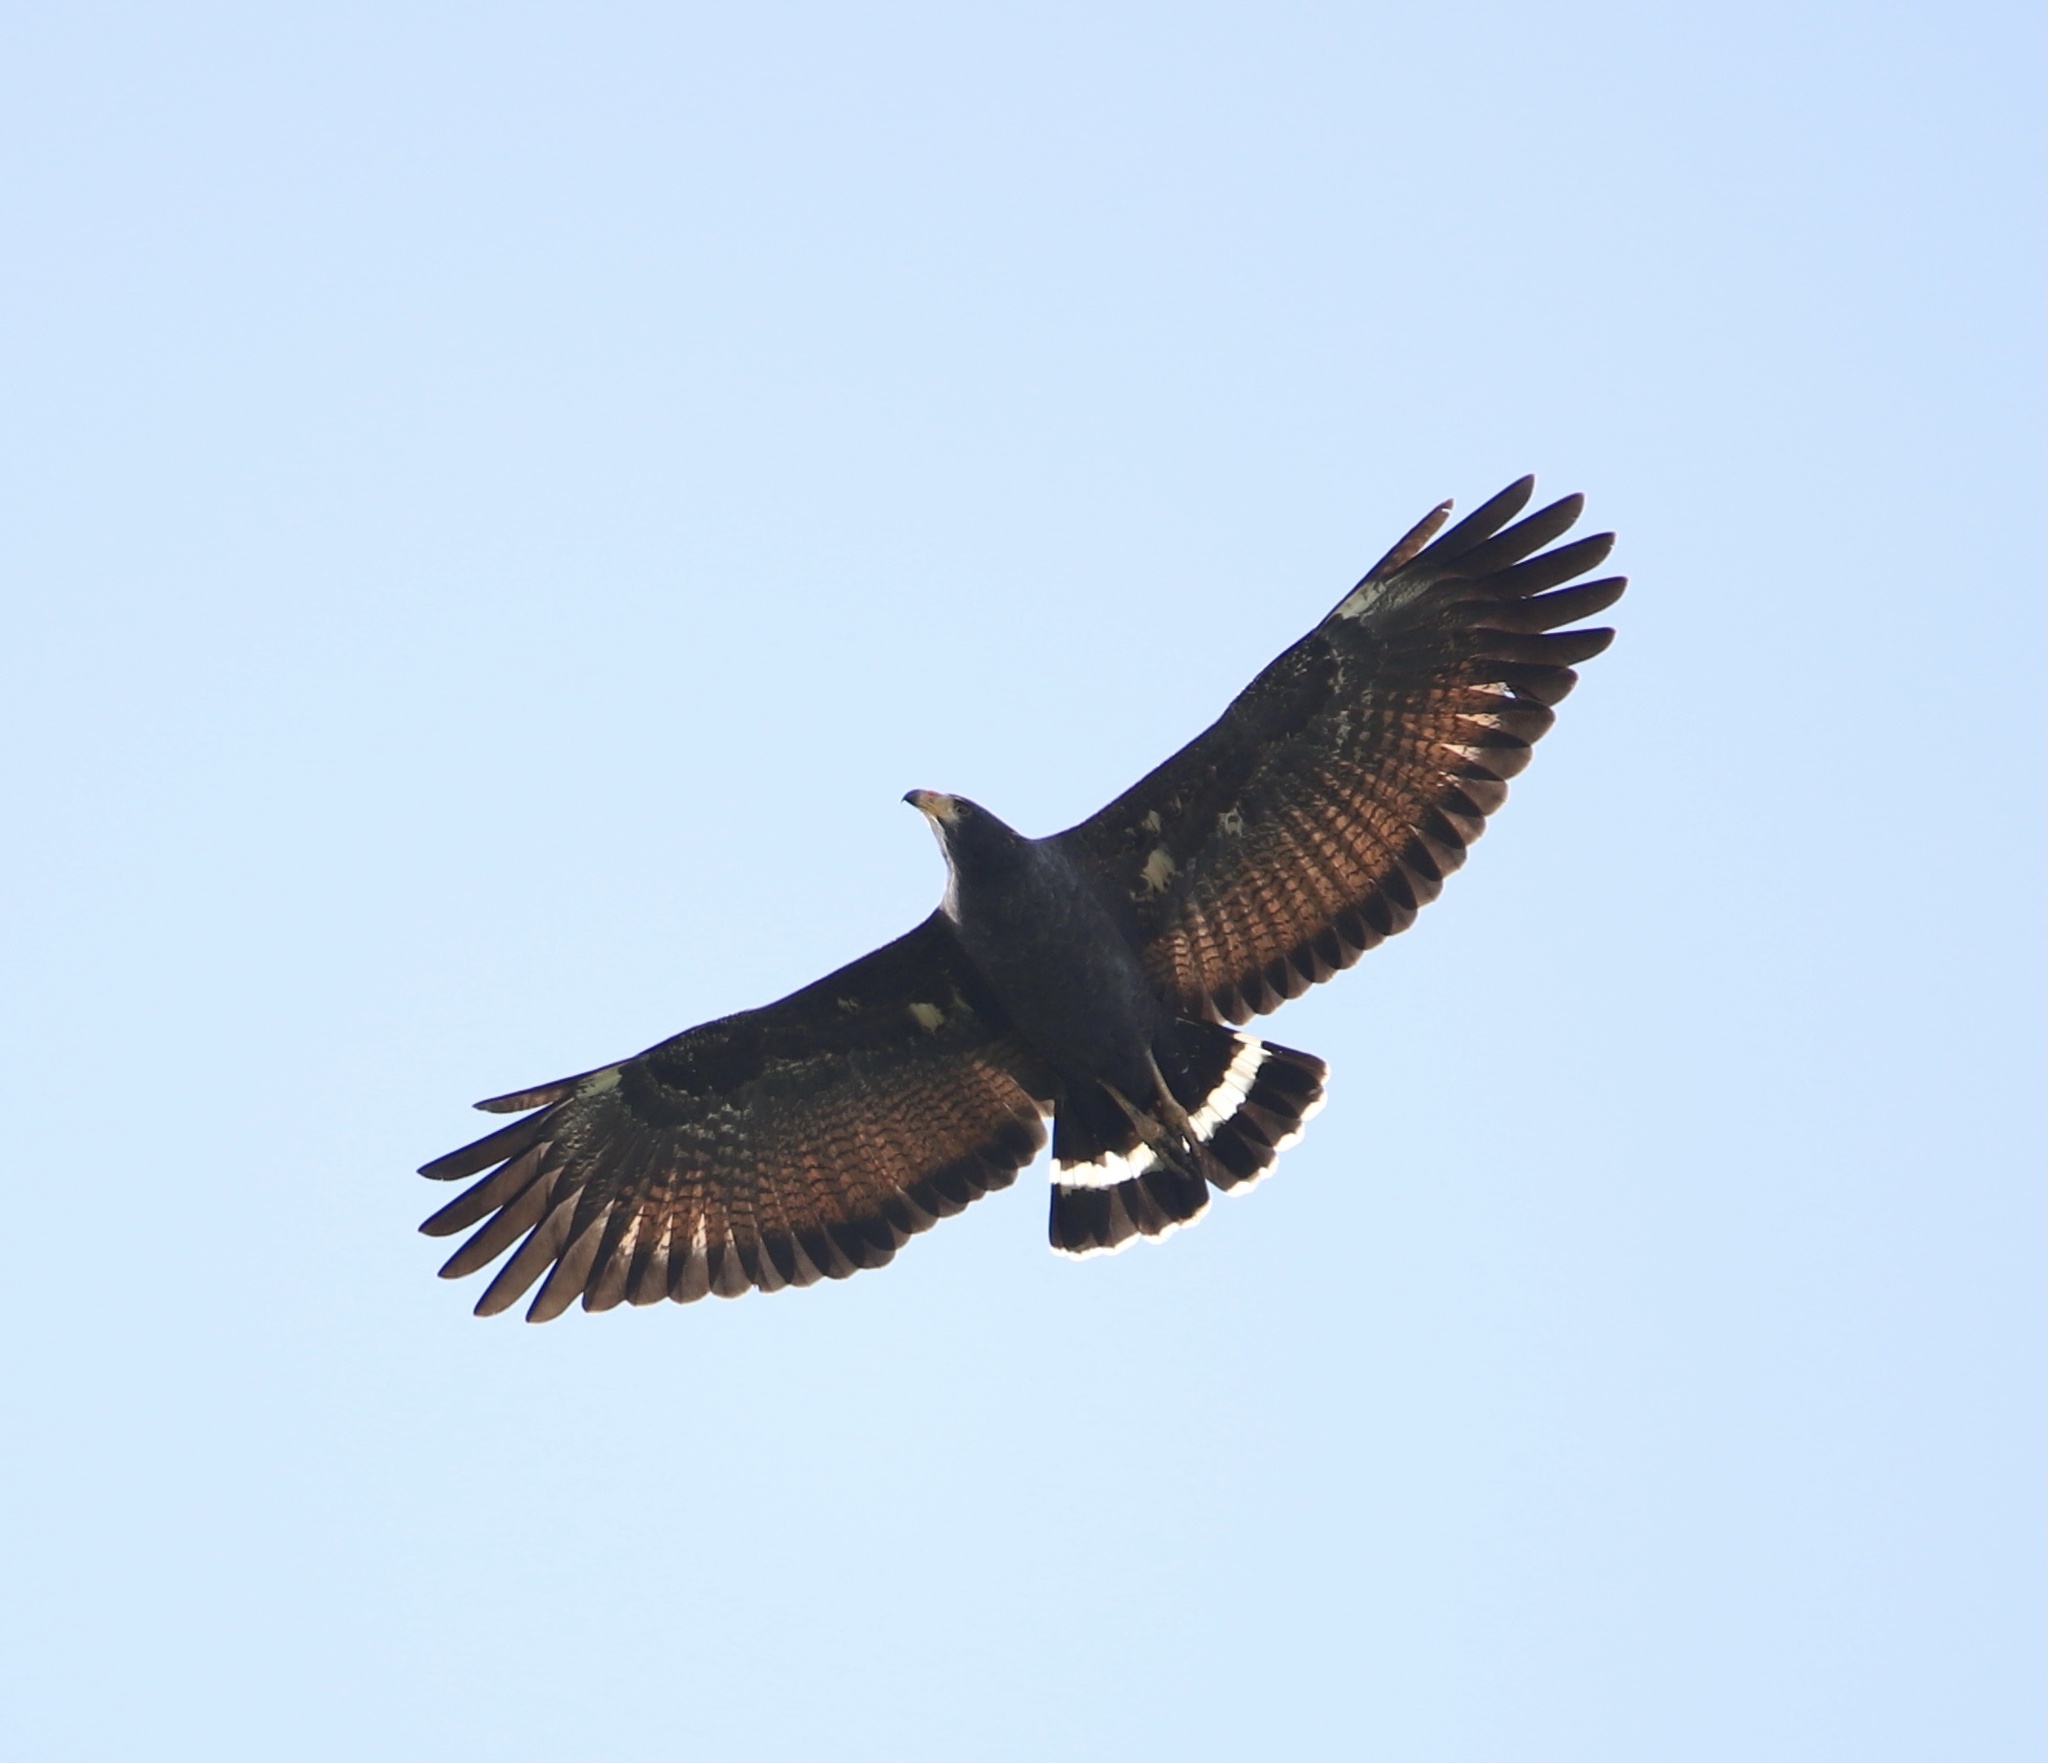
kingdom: Animalia
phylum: Chordata
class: Aves
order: Accipitriformes
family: Accipitridae
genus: Buteogallus
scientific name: Buteogallus anthracinus
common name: Common black hawk
